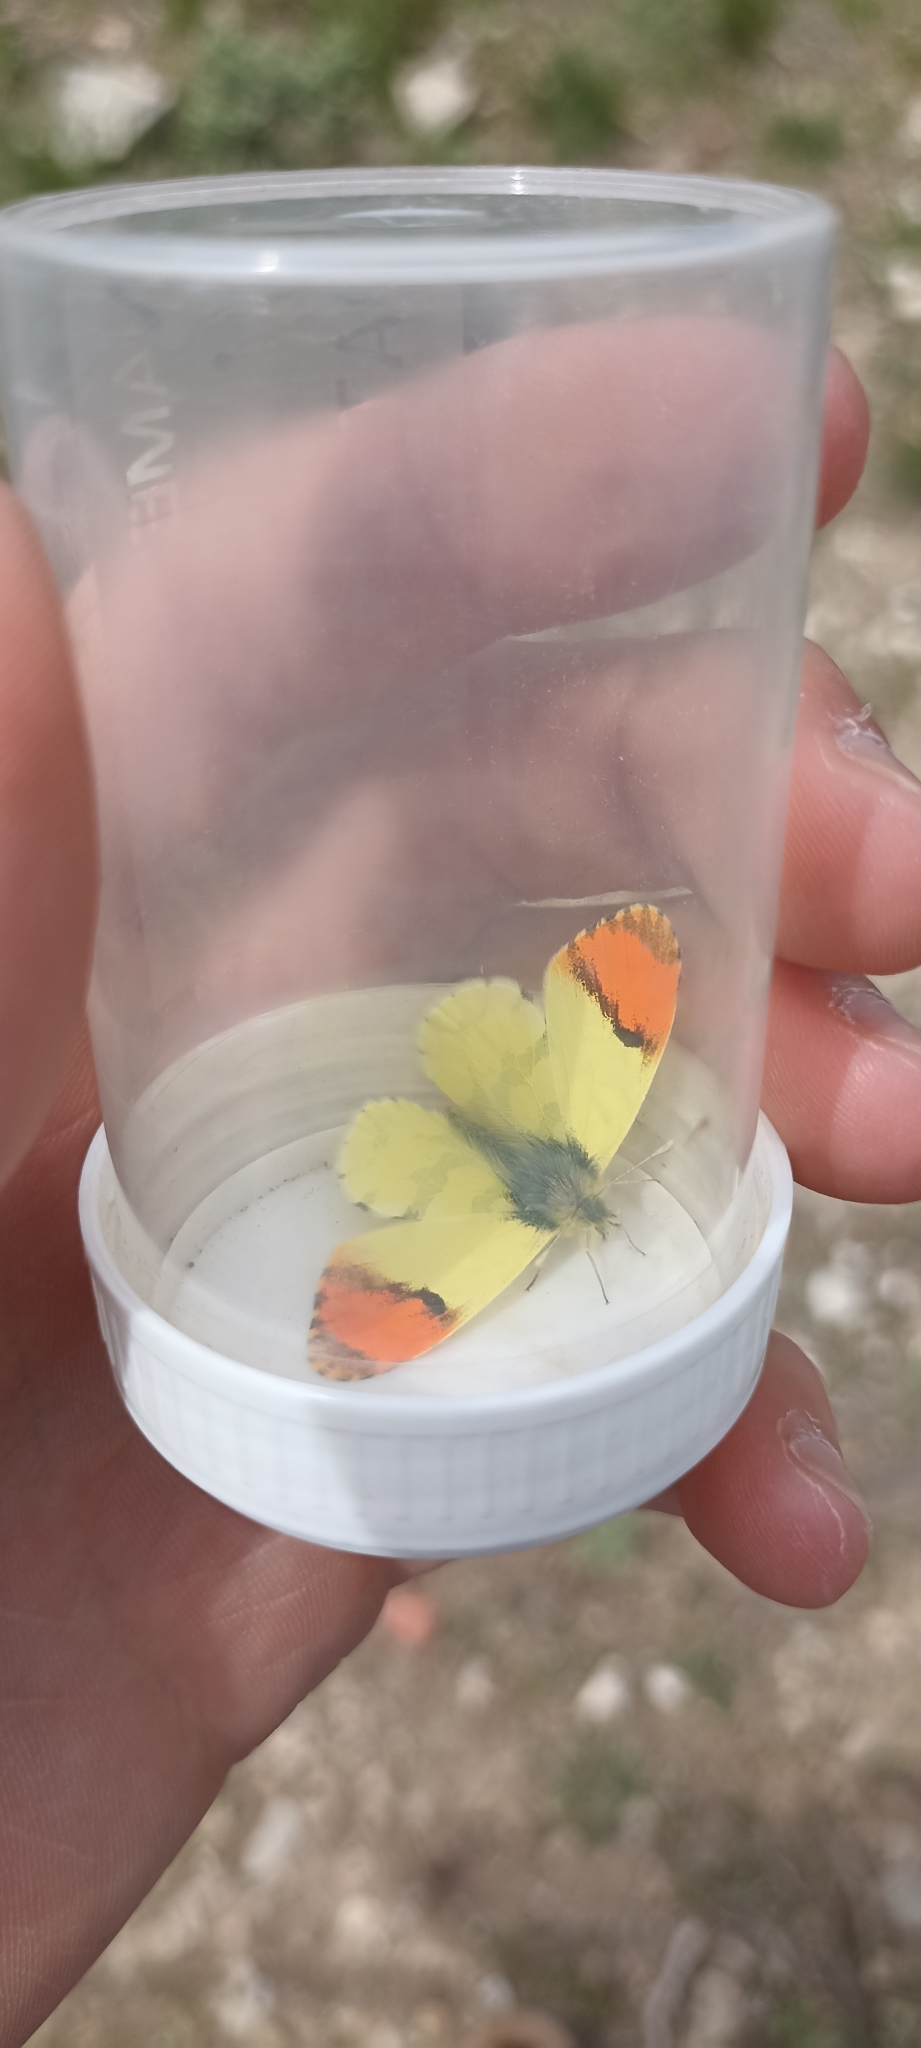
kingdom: Animalia
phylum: Arthropoda
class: Insecta
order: Lepidoptera
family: Pieridae
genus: Anthocharis
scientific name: Anthocharis euphenoides
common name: Provence orange-tip
